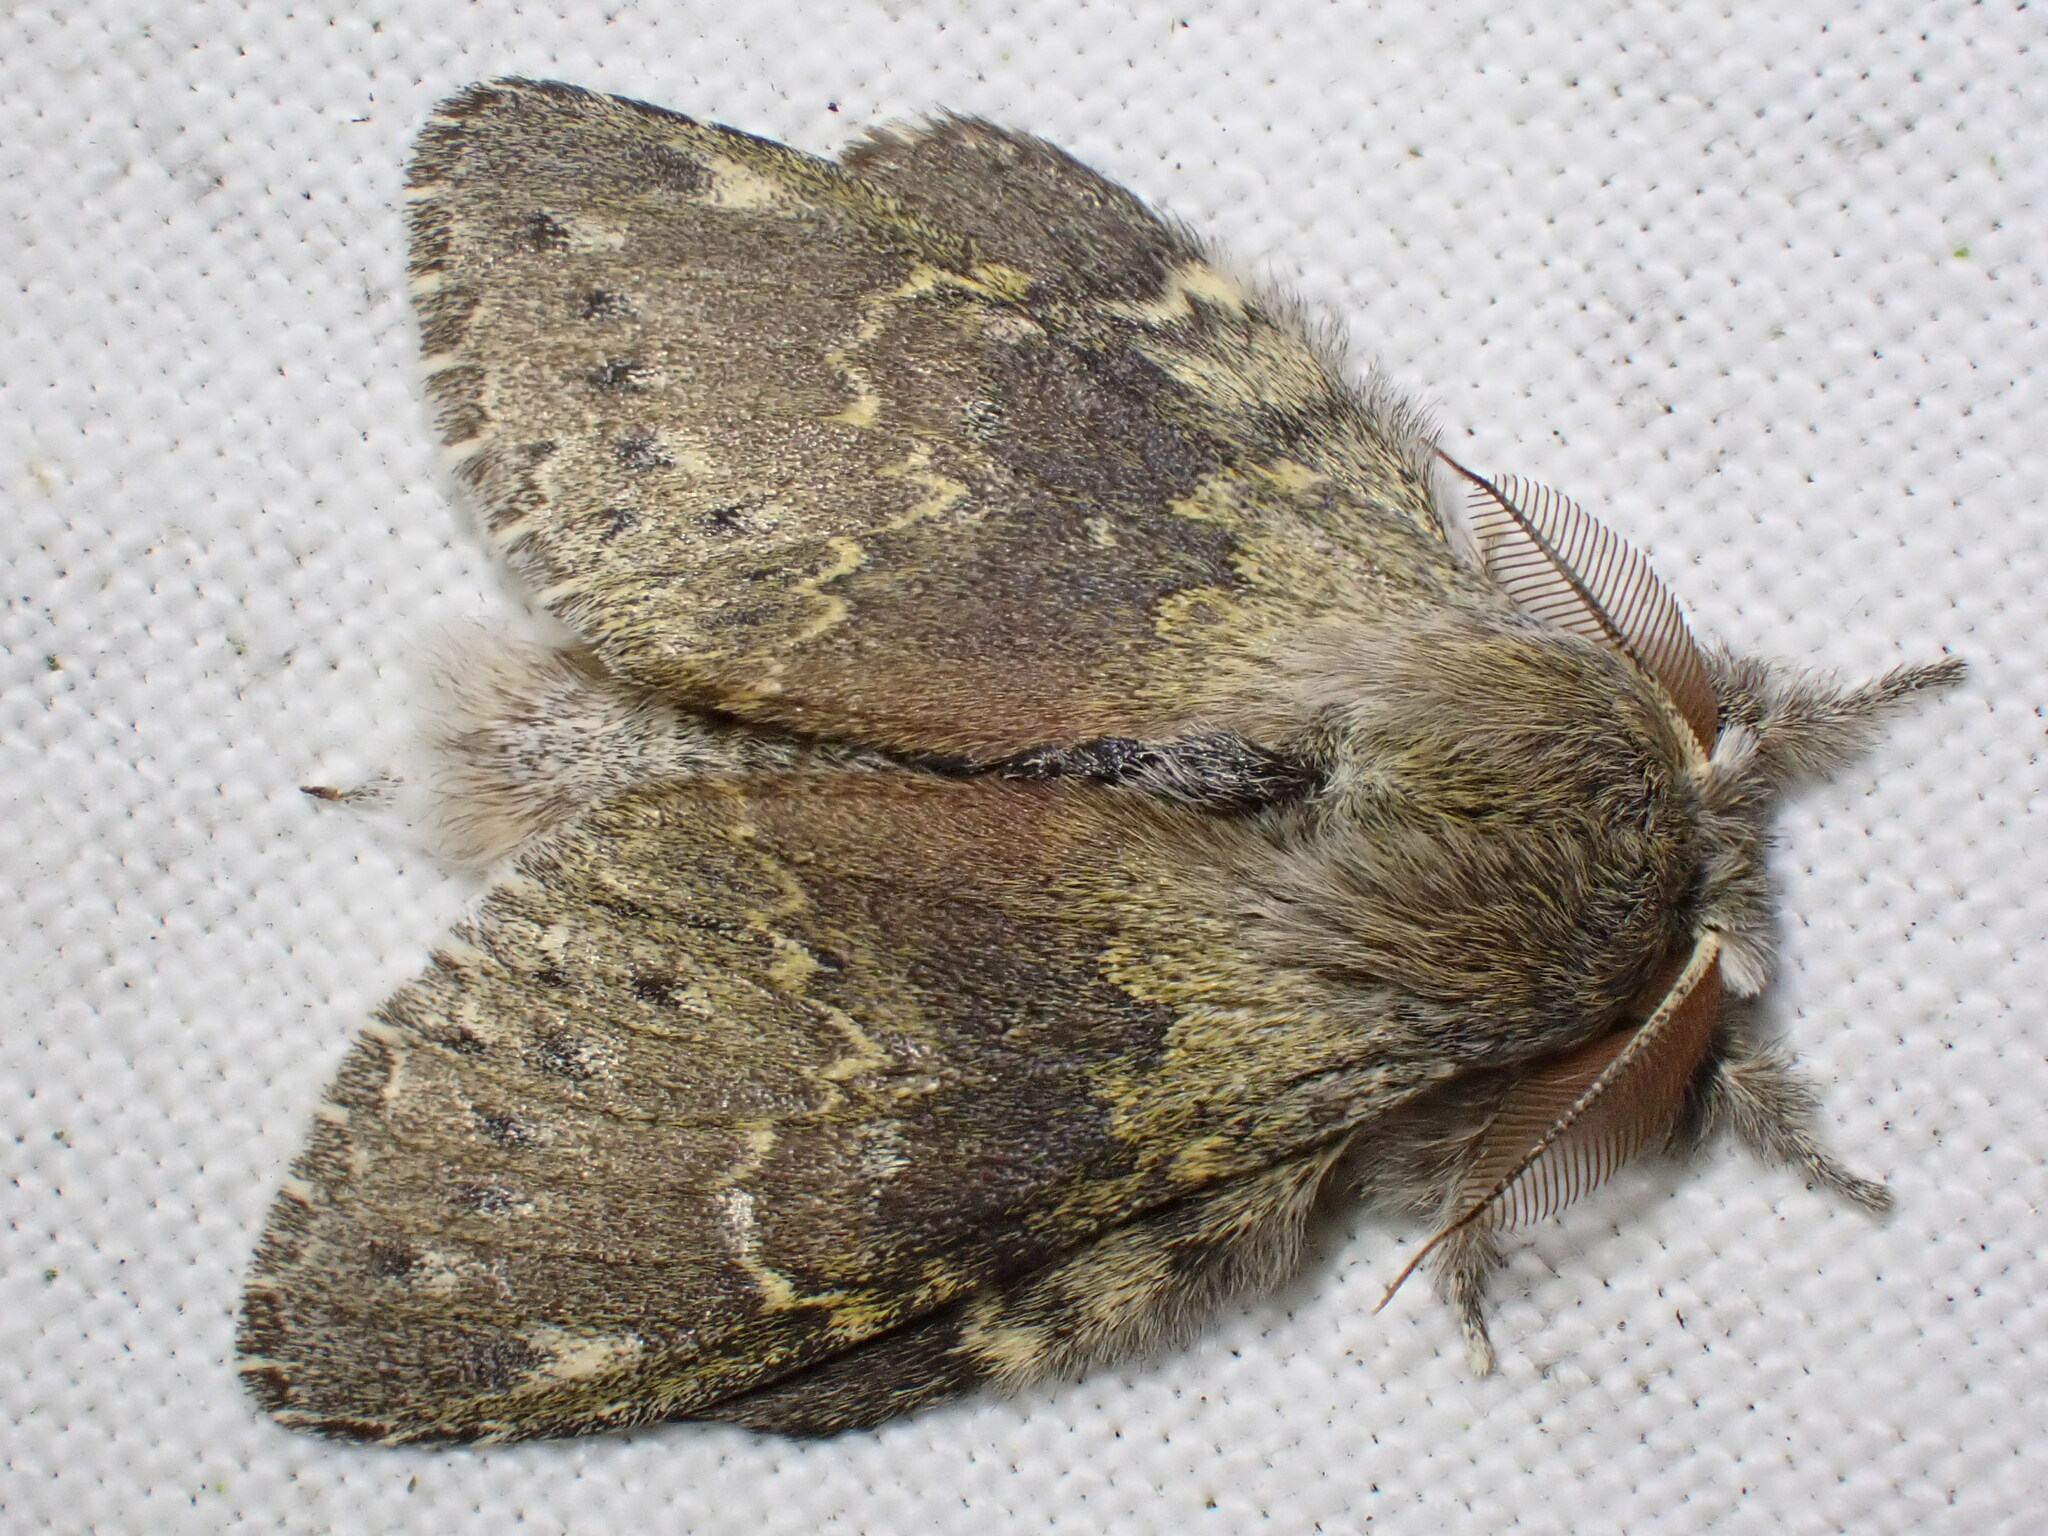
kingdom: Animalia
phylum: Arthropoda
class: Insecta
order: Lepidoptera
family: Notodontidae
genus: Stauropus
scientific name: Stauropus fagi
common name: Lobster moth
